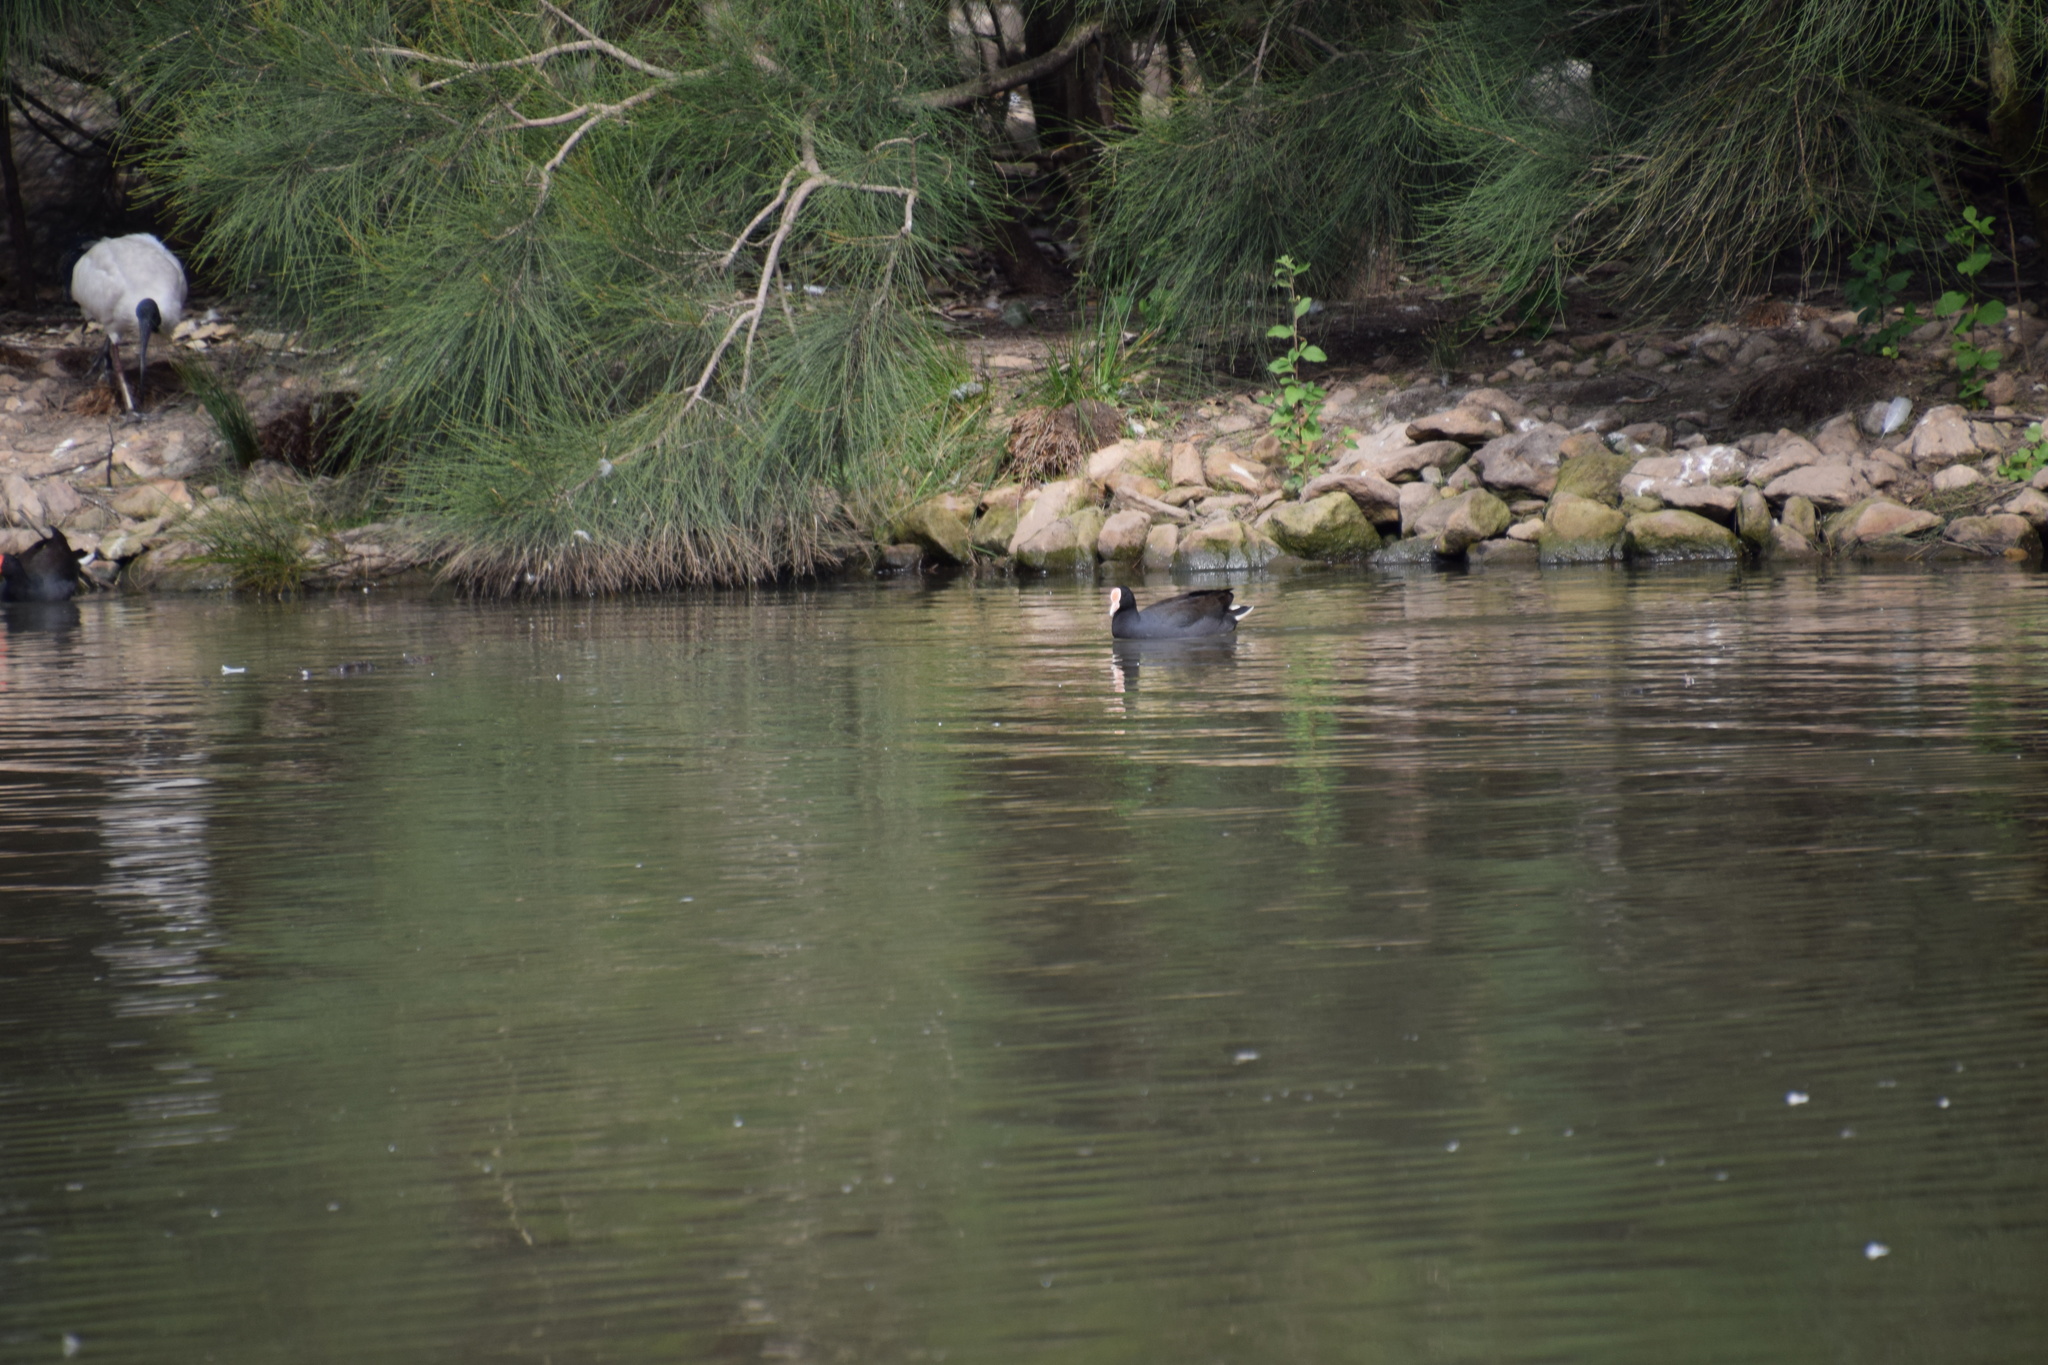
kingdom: Animalia
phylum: Chordata
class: Aves
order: Gruiformes
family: Rallidae
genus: Fulica
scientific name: Fulica atra
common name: Eurasian coot
